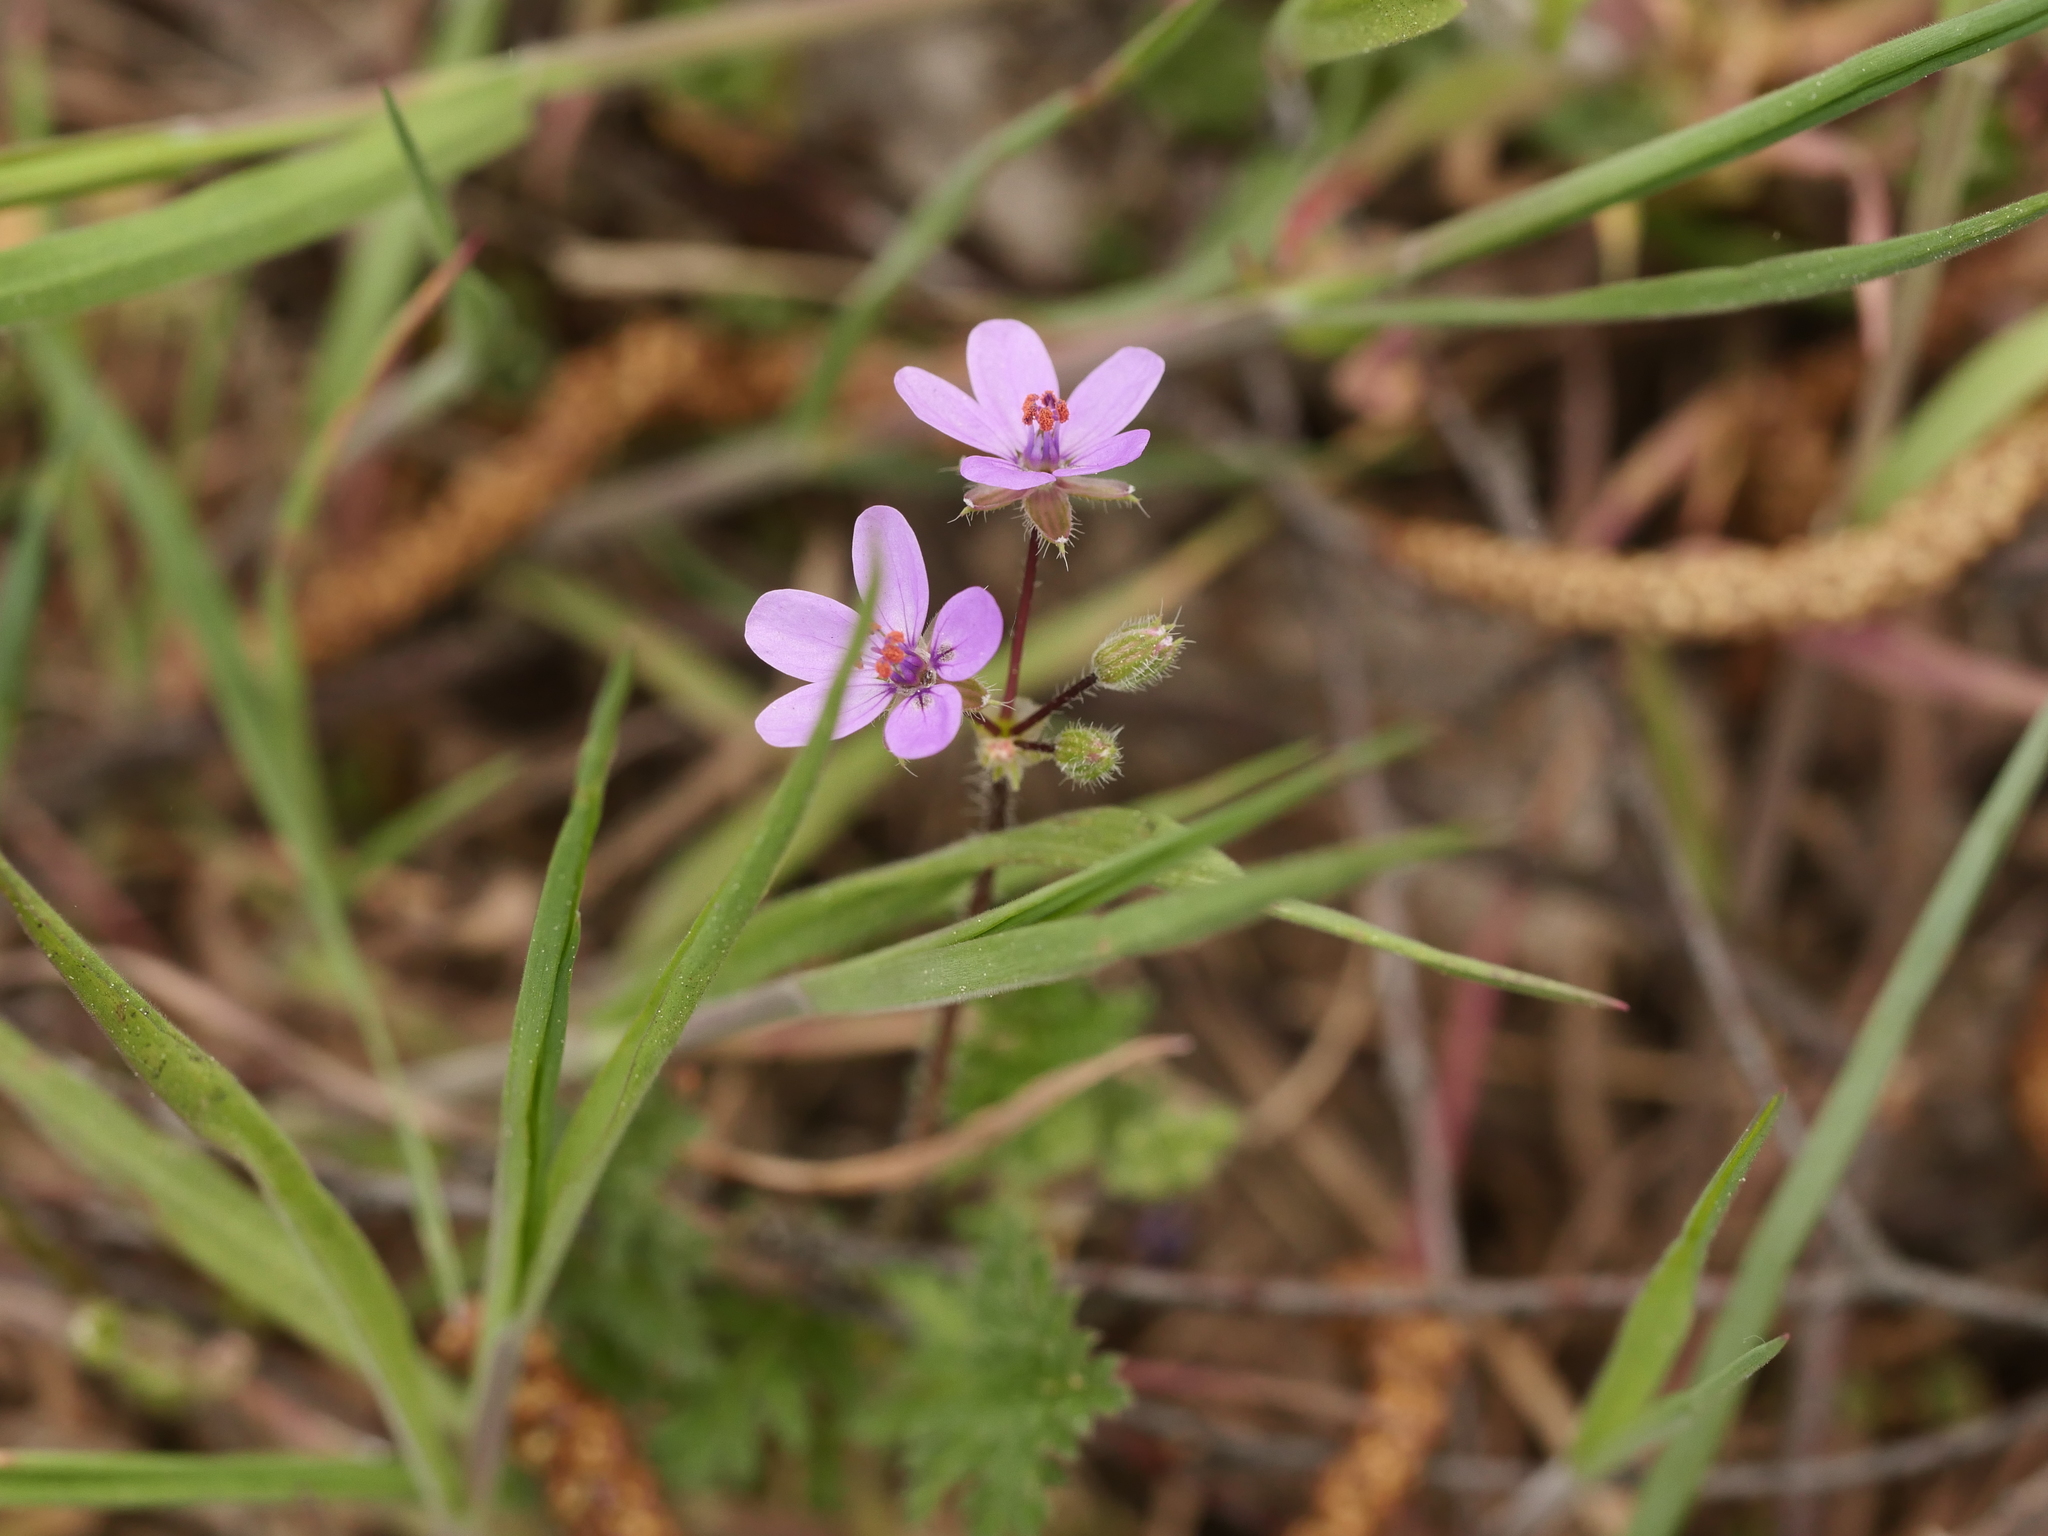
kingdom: Plantae
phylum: Tracheophyta
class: Magnoliopsida
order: Geraniales
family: Geraniaceae
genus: Erodium
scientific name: Erodium cicutarium
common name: Common stork's-bill
